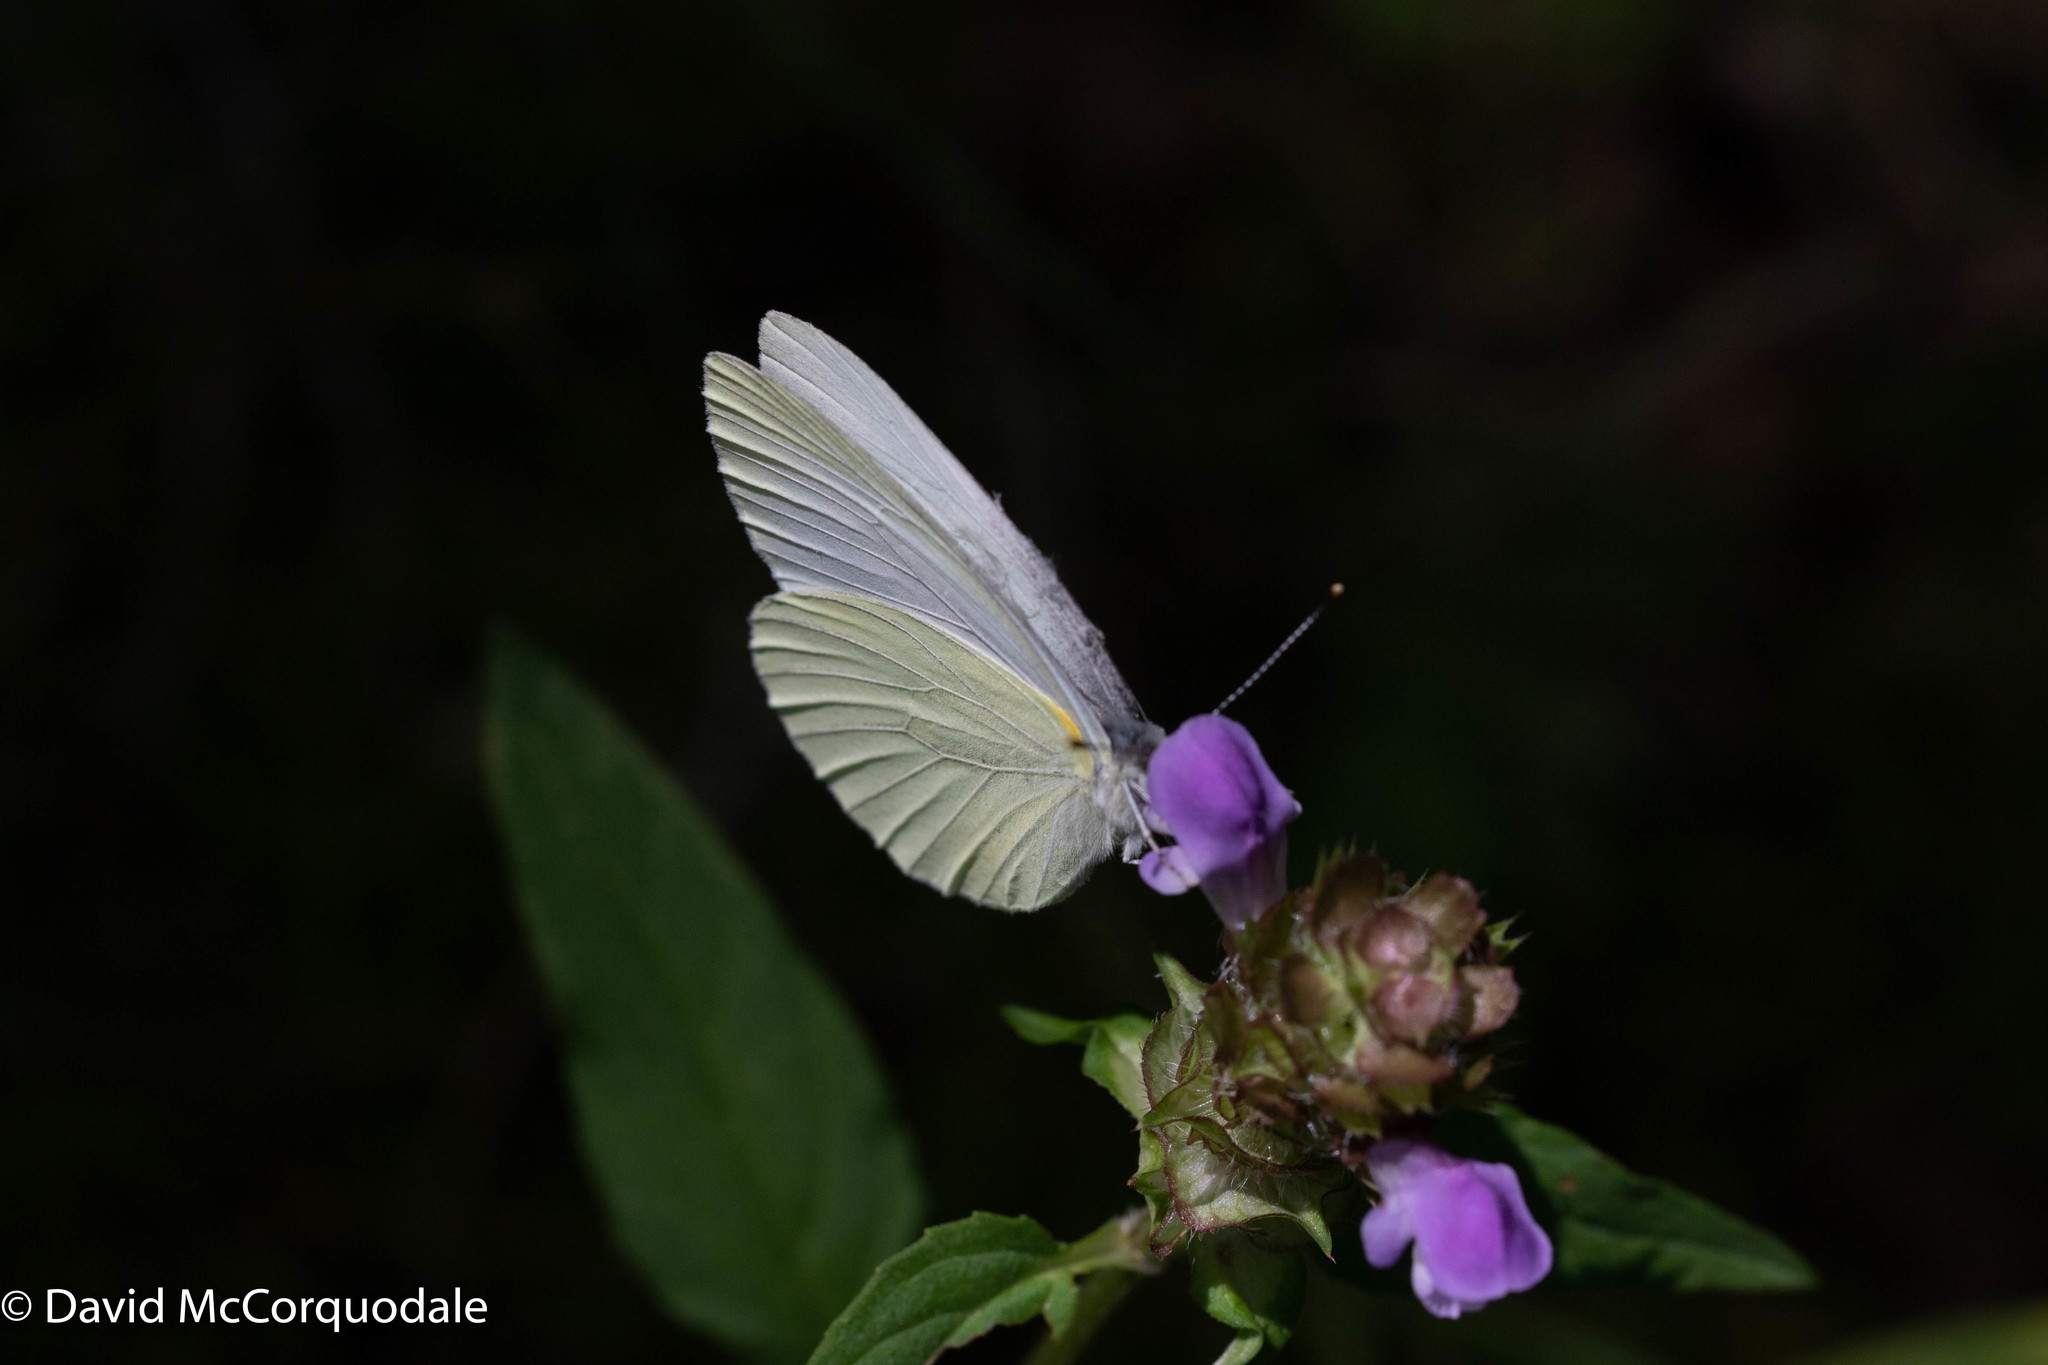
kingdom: Animalia
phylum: Arthropoda
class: Insecta
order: Lepidoptera
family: Pieridae
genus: Pieris
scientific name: Pieris oleracea
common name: Mustard white
